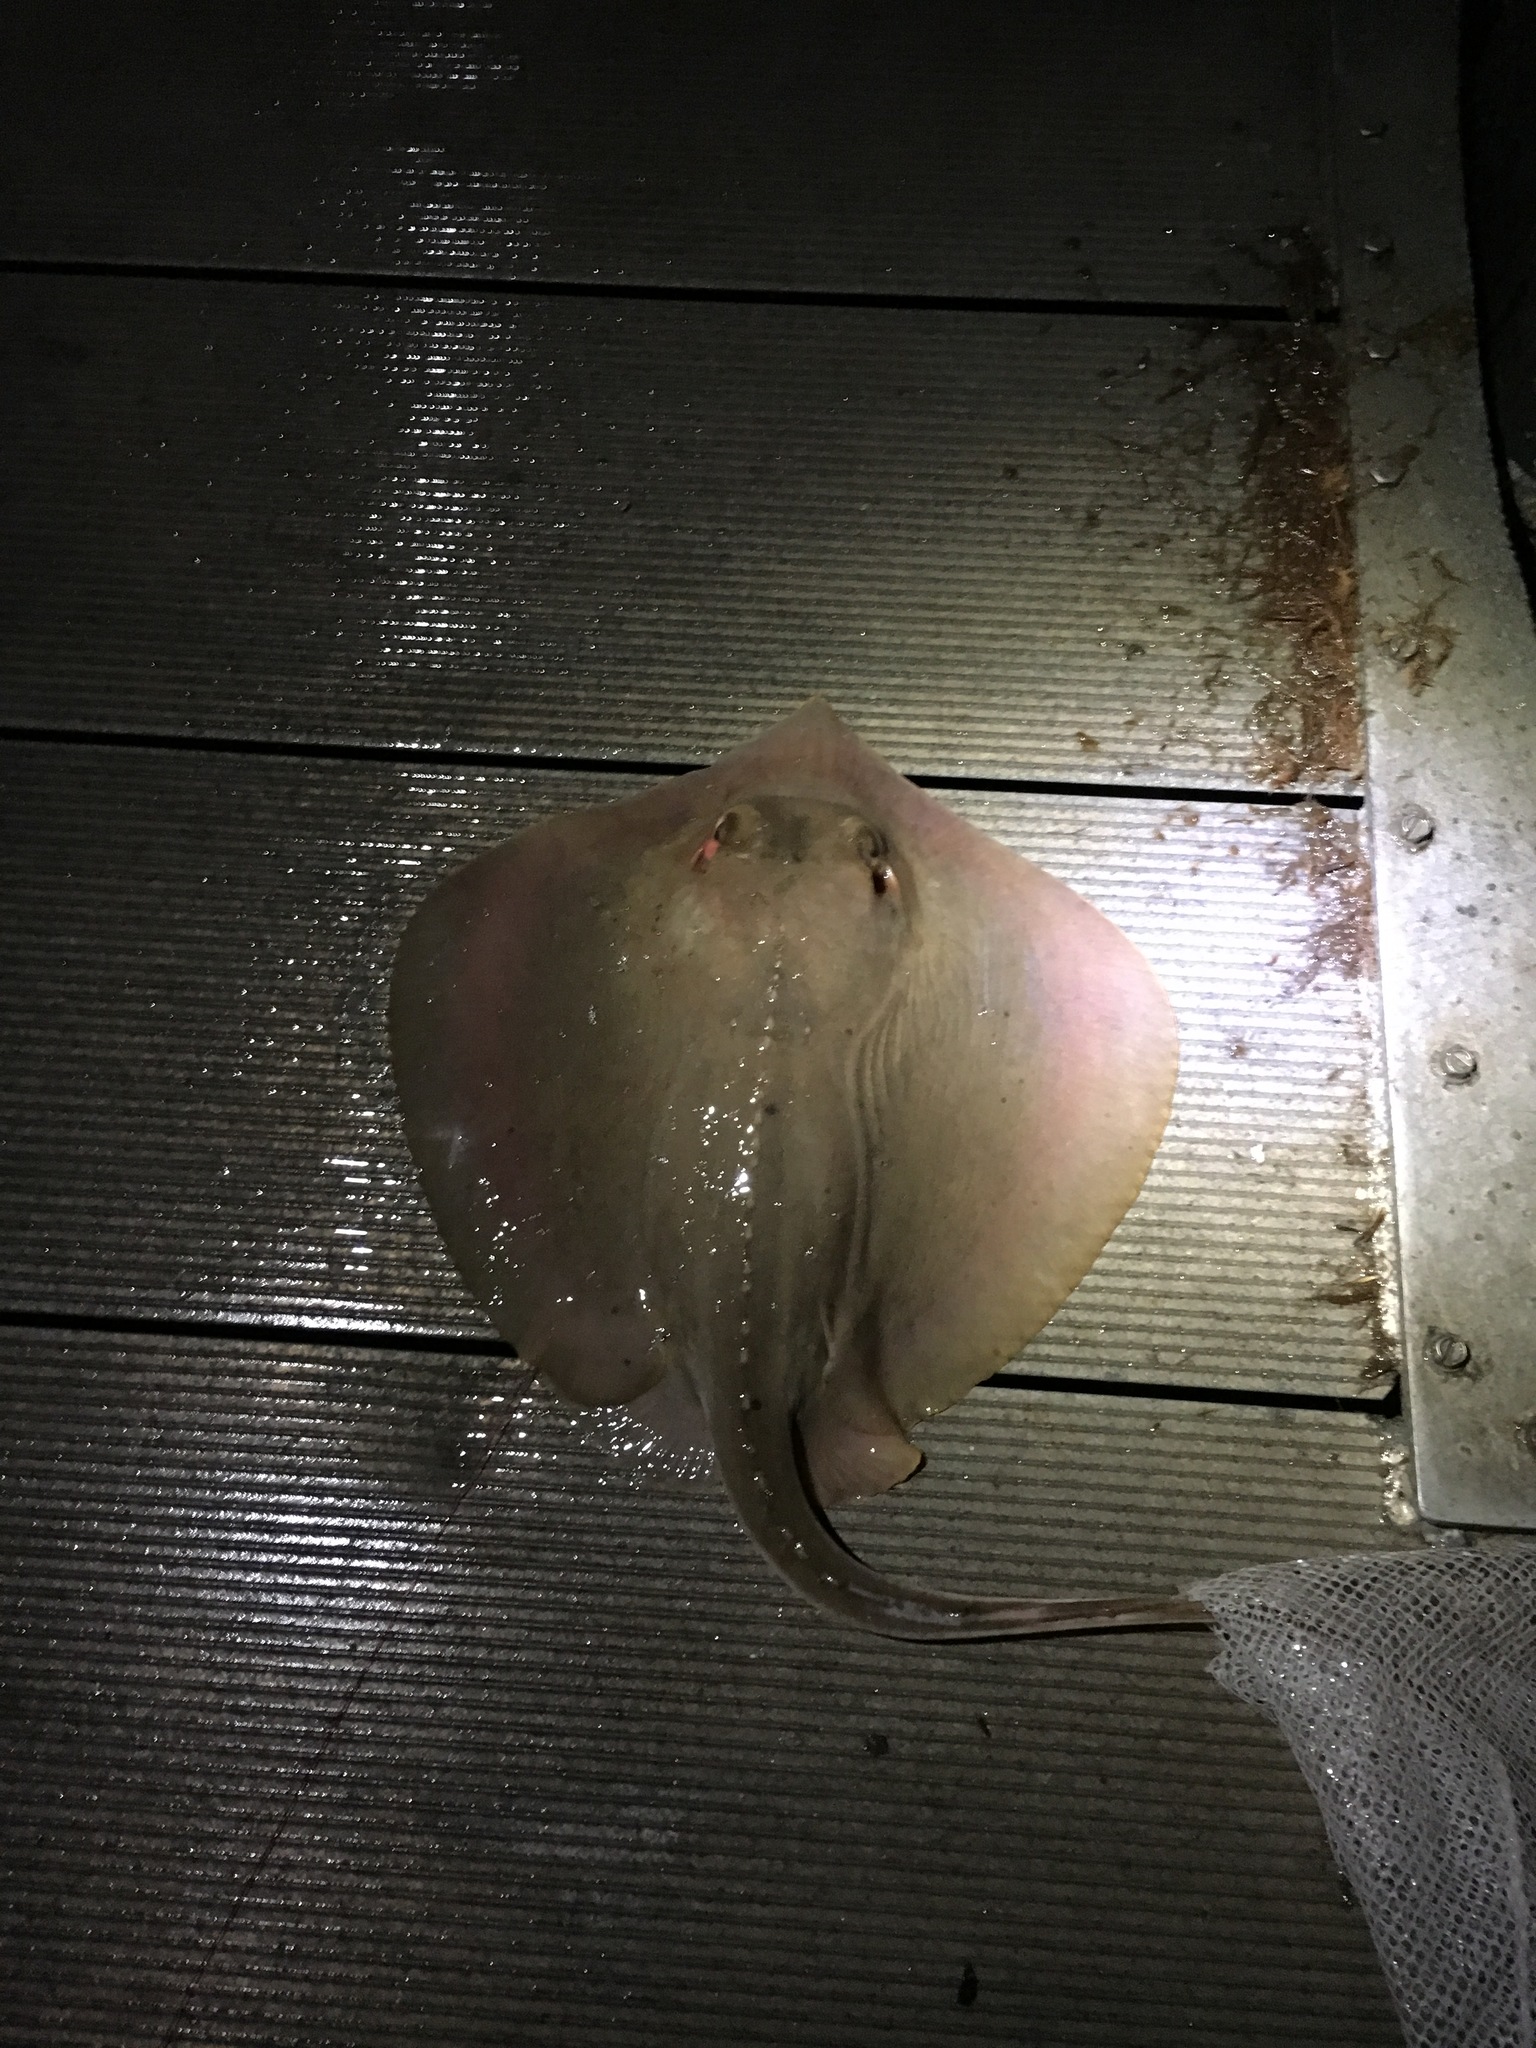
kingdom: Animalia
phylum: Chordata
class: Elasmobranchii
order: Myliobatiformes
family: Dasyatidae
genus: Hypanus
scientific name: Hypanus sabinus
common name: Atlantic stingray
